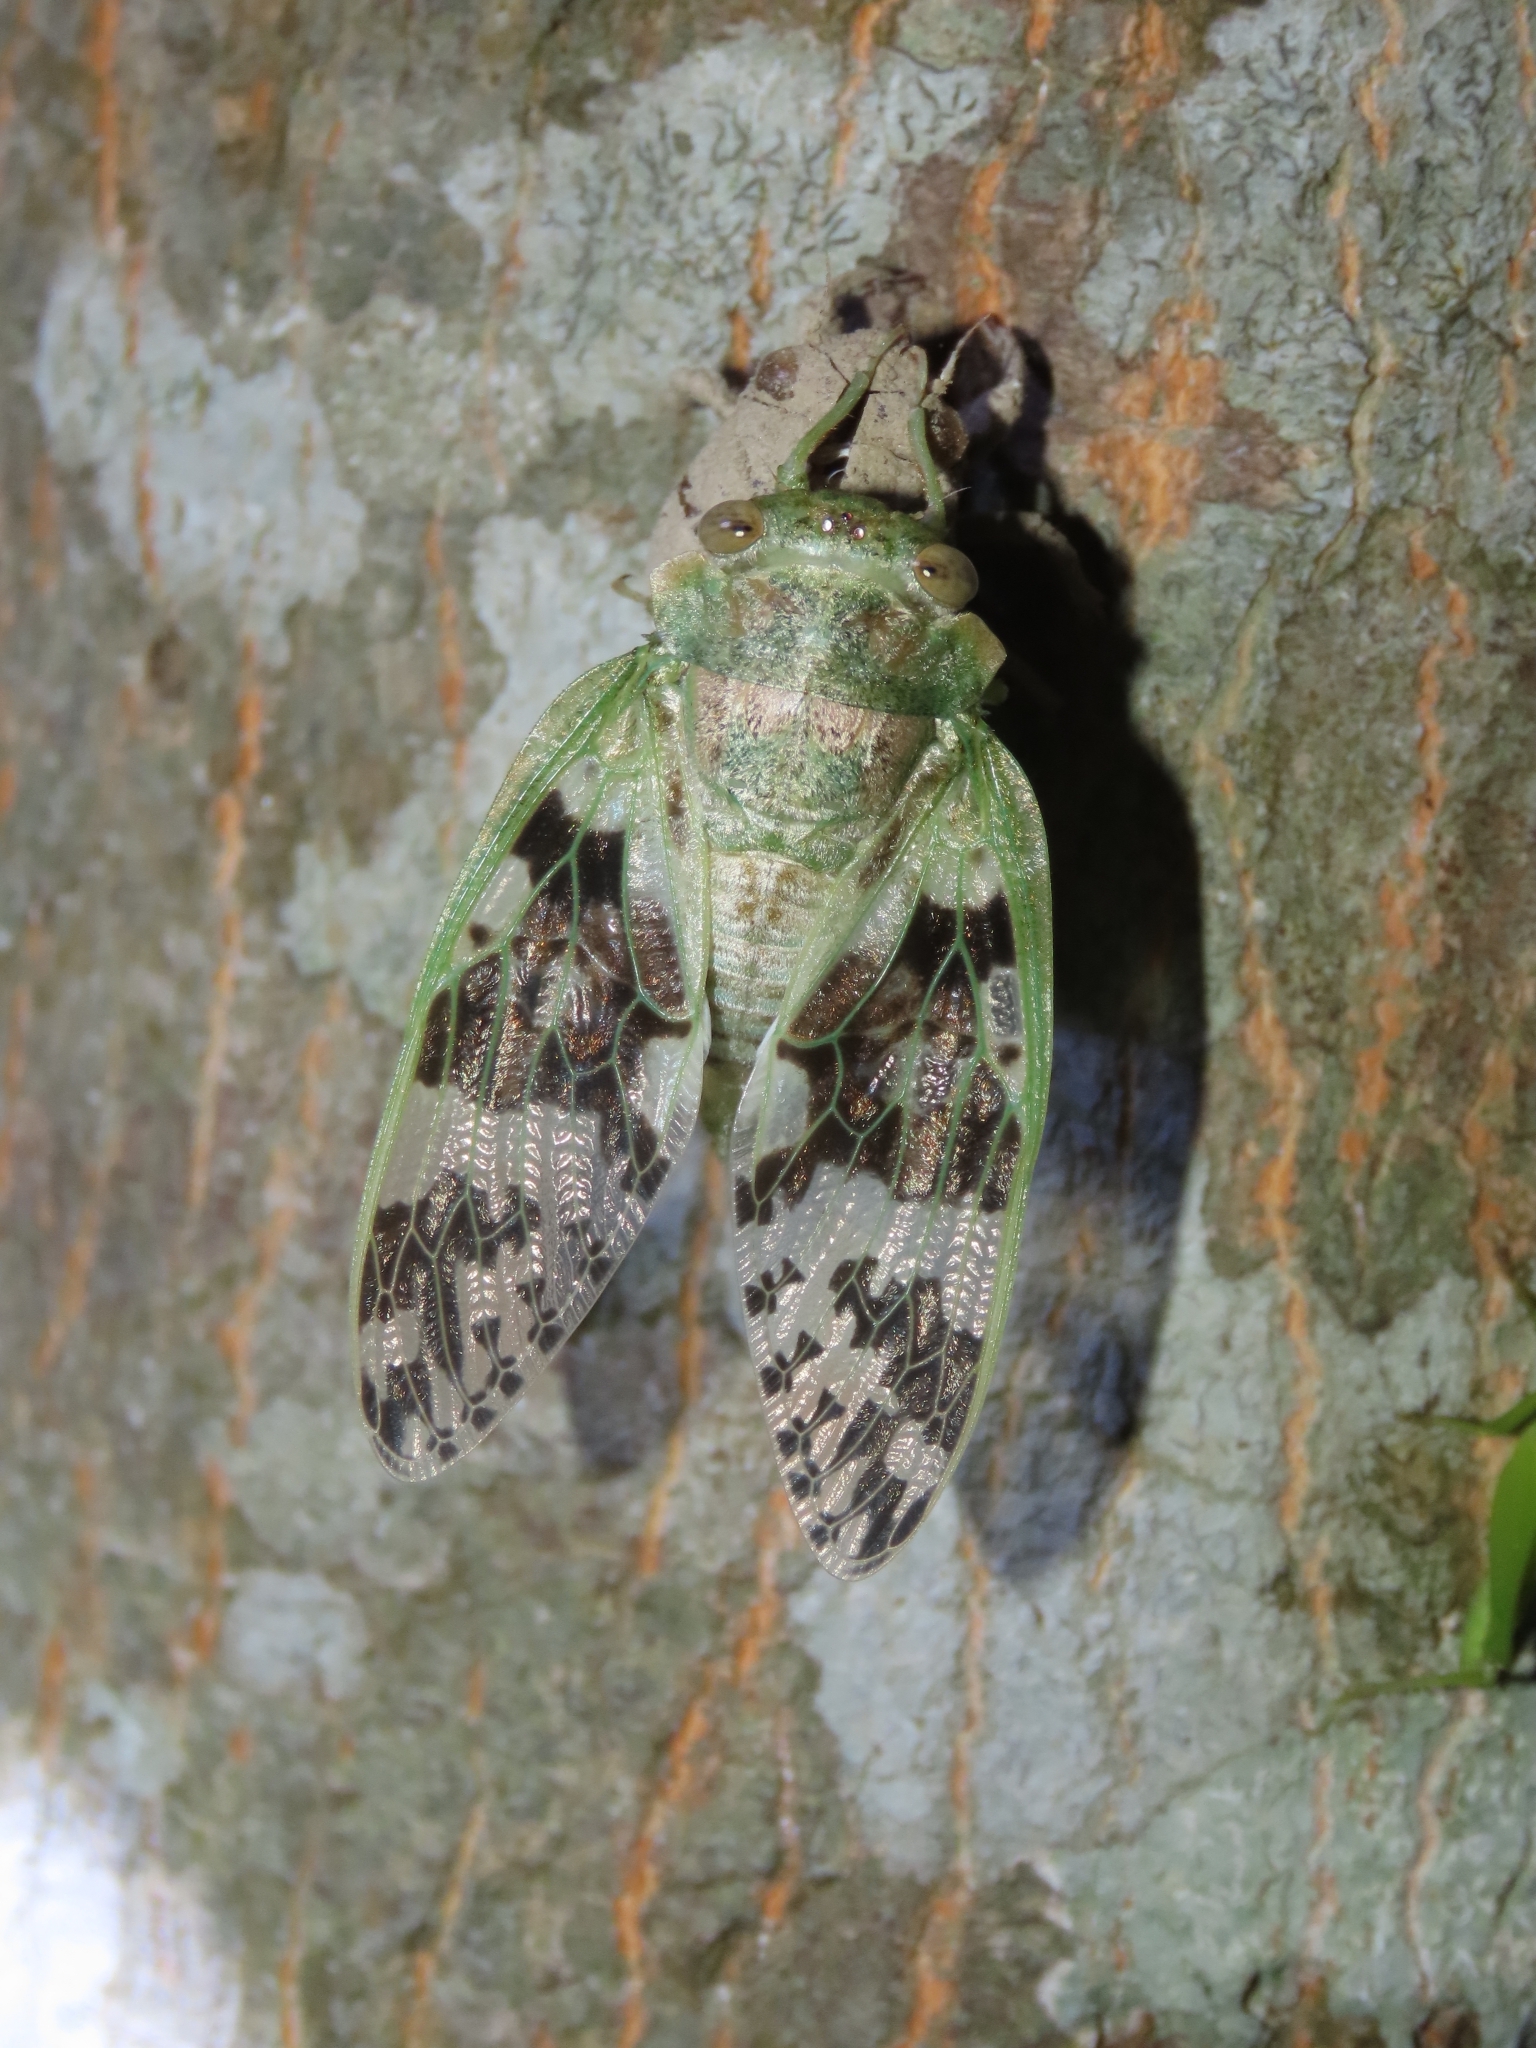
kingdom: Animalia
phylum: Arthropoda
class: Insecta
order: Hemiptera
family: Cicadidae
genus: Platypleura
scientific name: Platypleura takasagona
